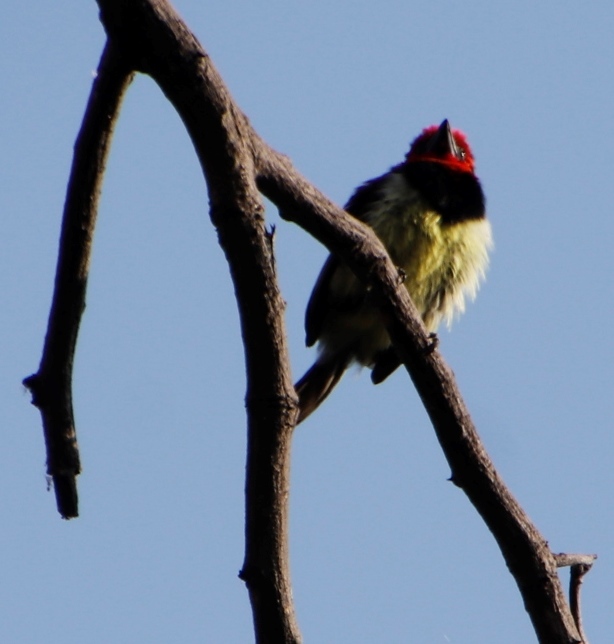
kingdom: Animalia
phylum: Chordata
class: Aves
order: Piciformes
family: Lybiidae
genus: Lybius
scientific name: Lybius torquatus
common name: Black-collared barbet
